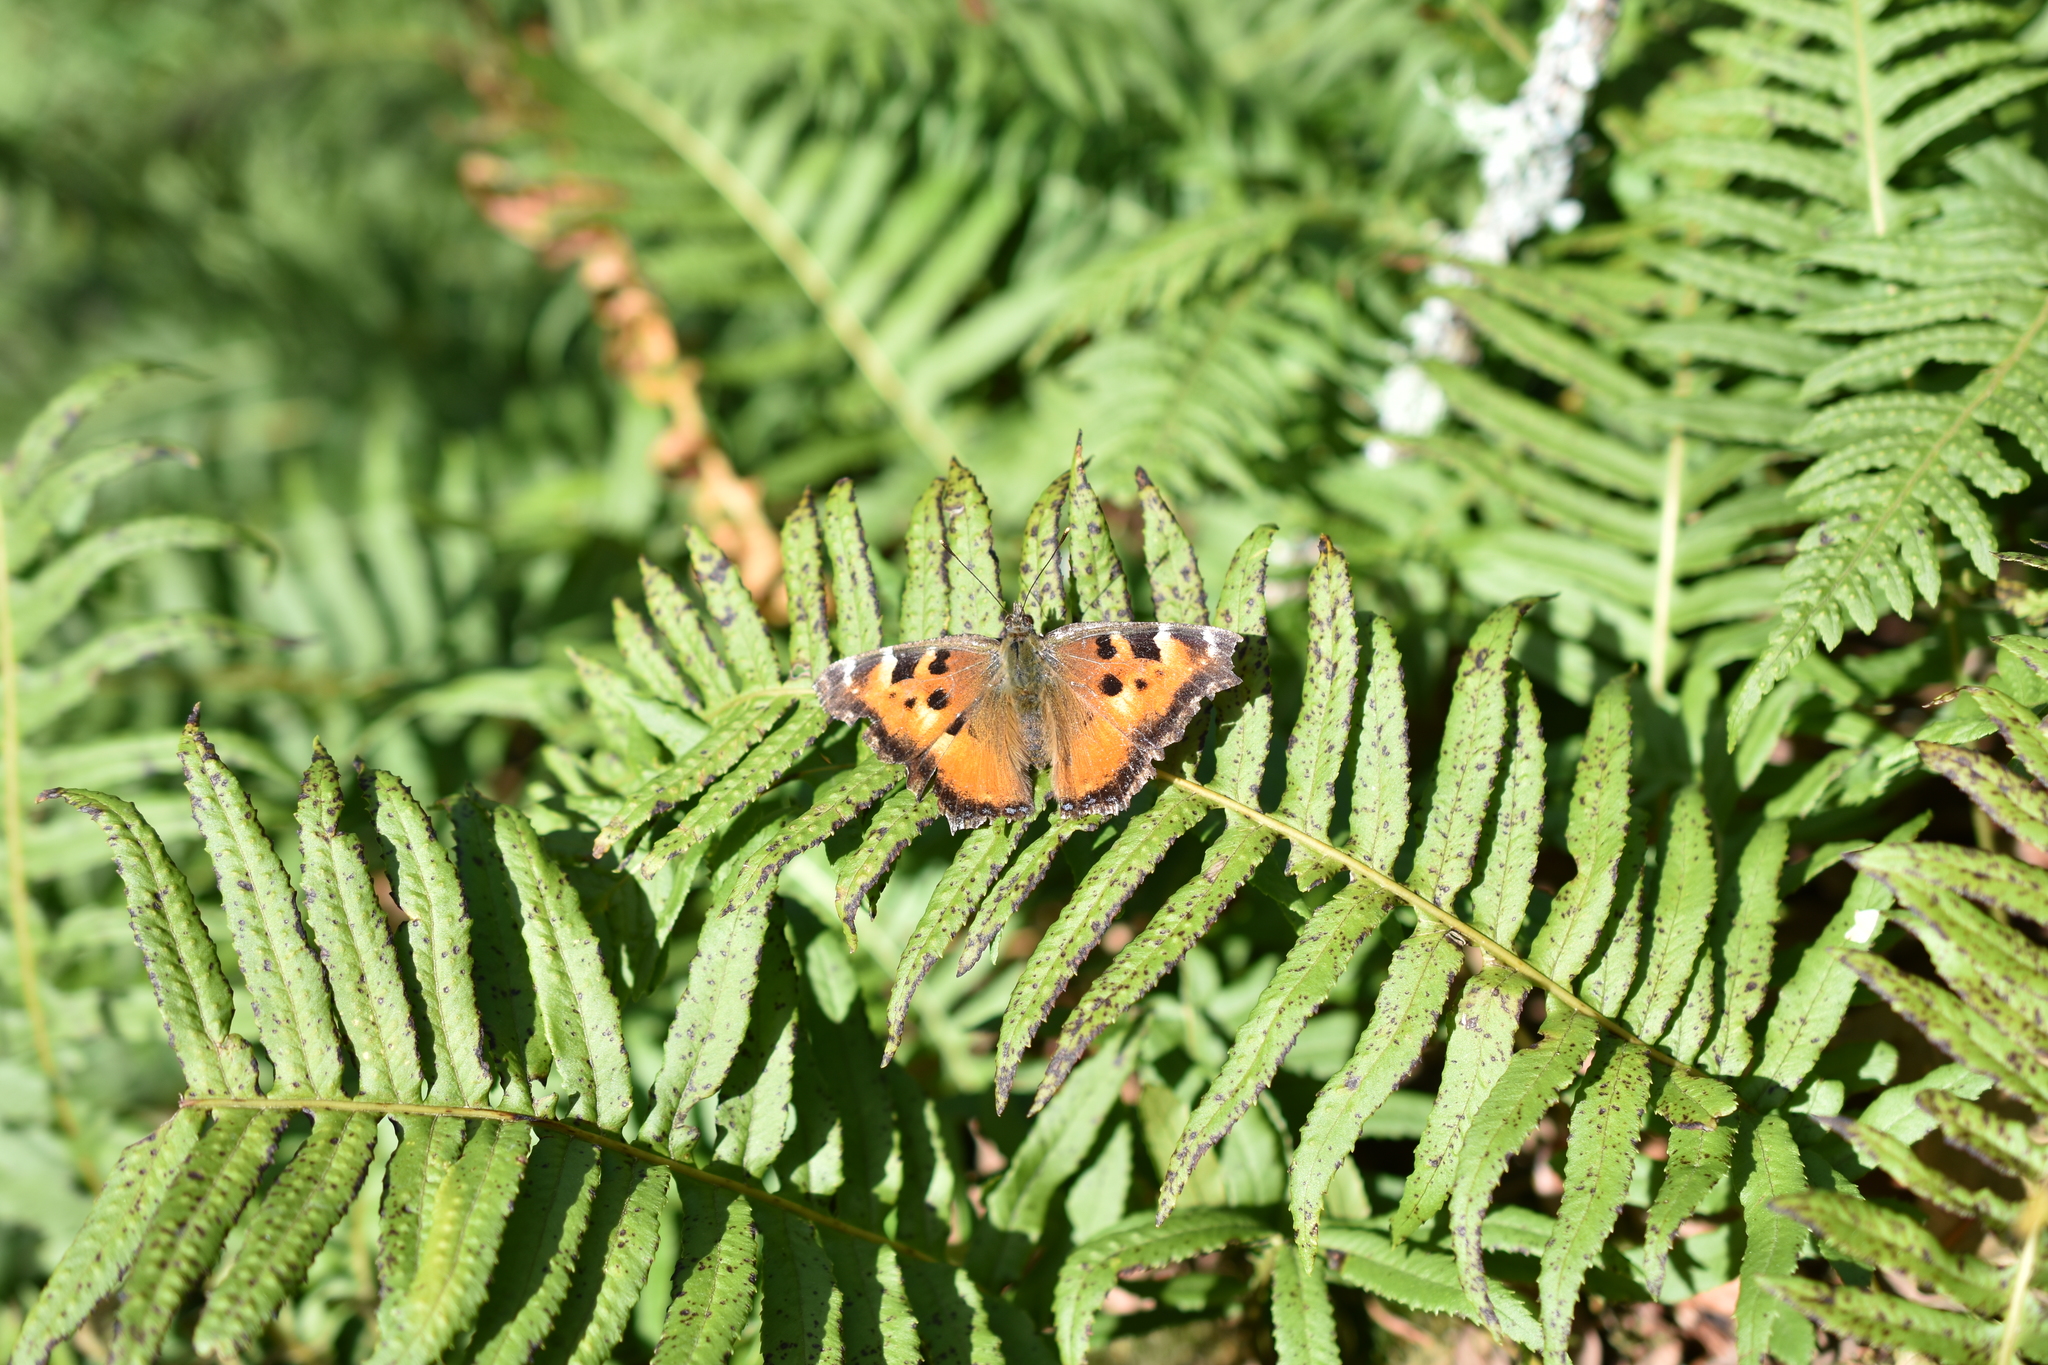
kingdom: Animalia
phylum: Arthropoda
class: Insecta
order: Lepidoptera
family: Nymphalidae
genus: Nymphalis
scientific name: Nymphalis californica
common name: California tortoiseshell
